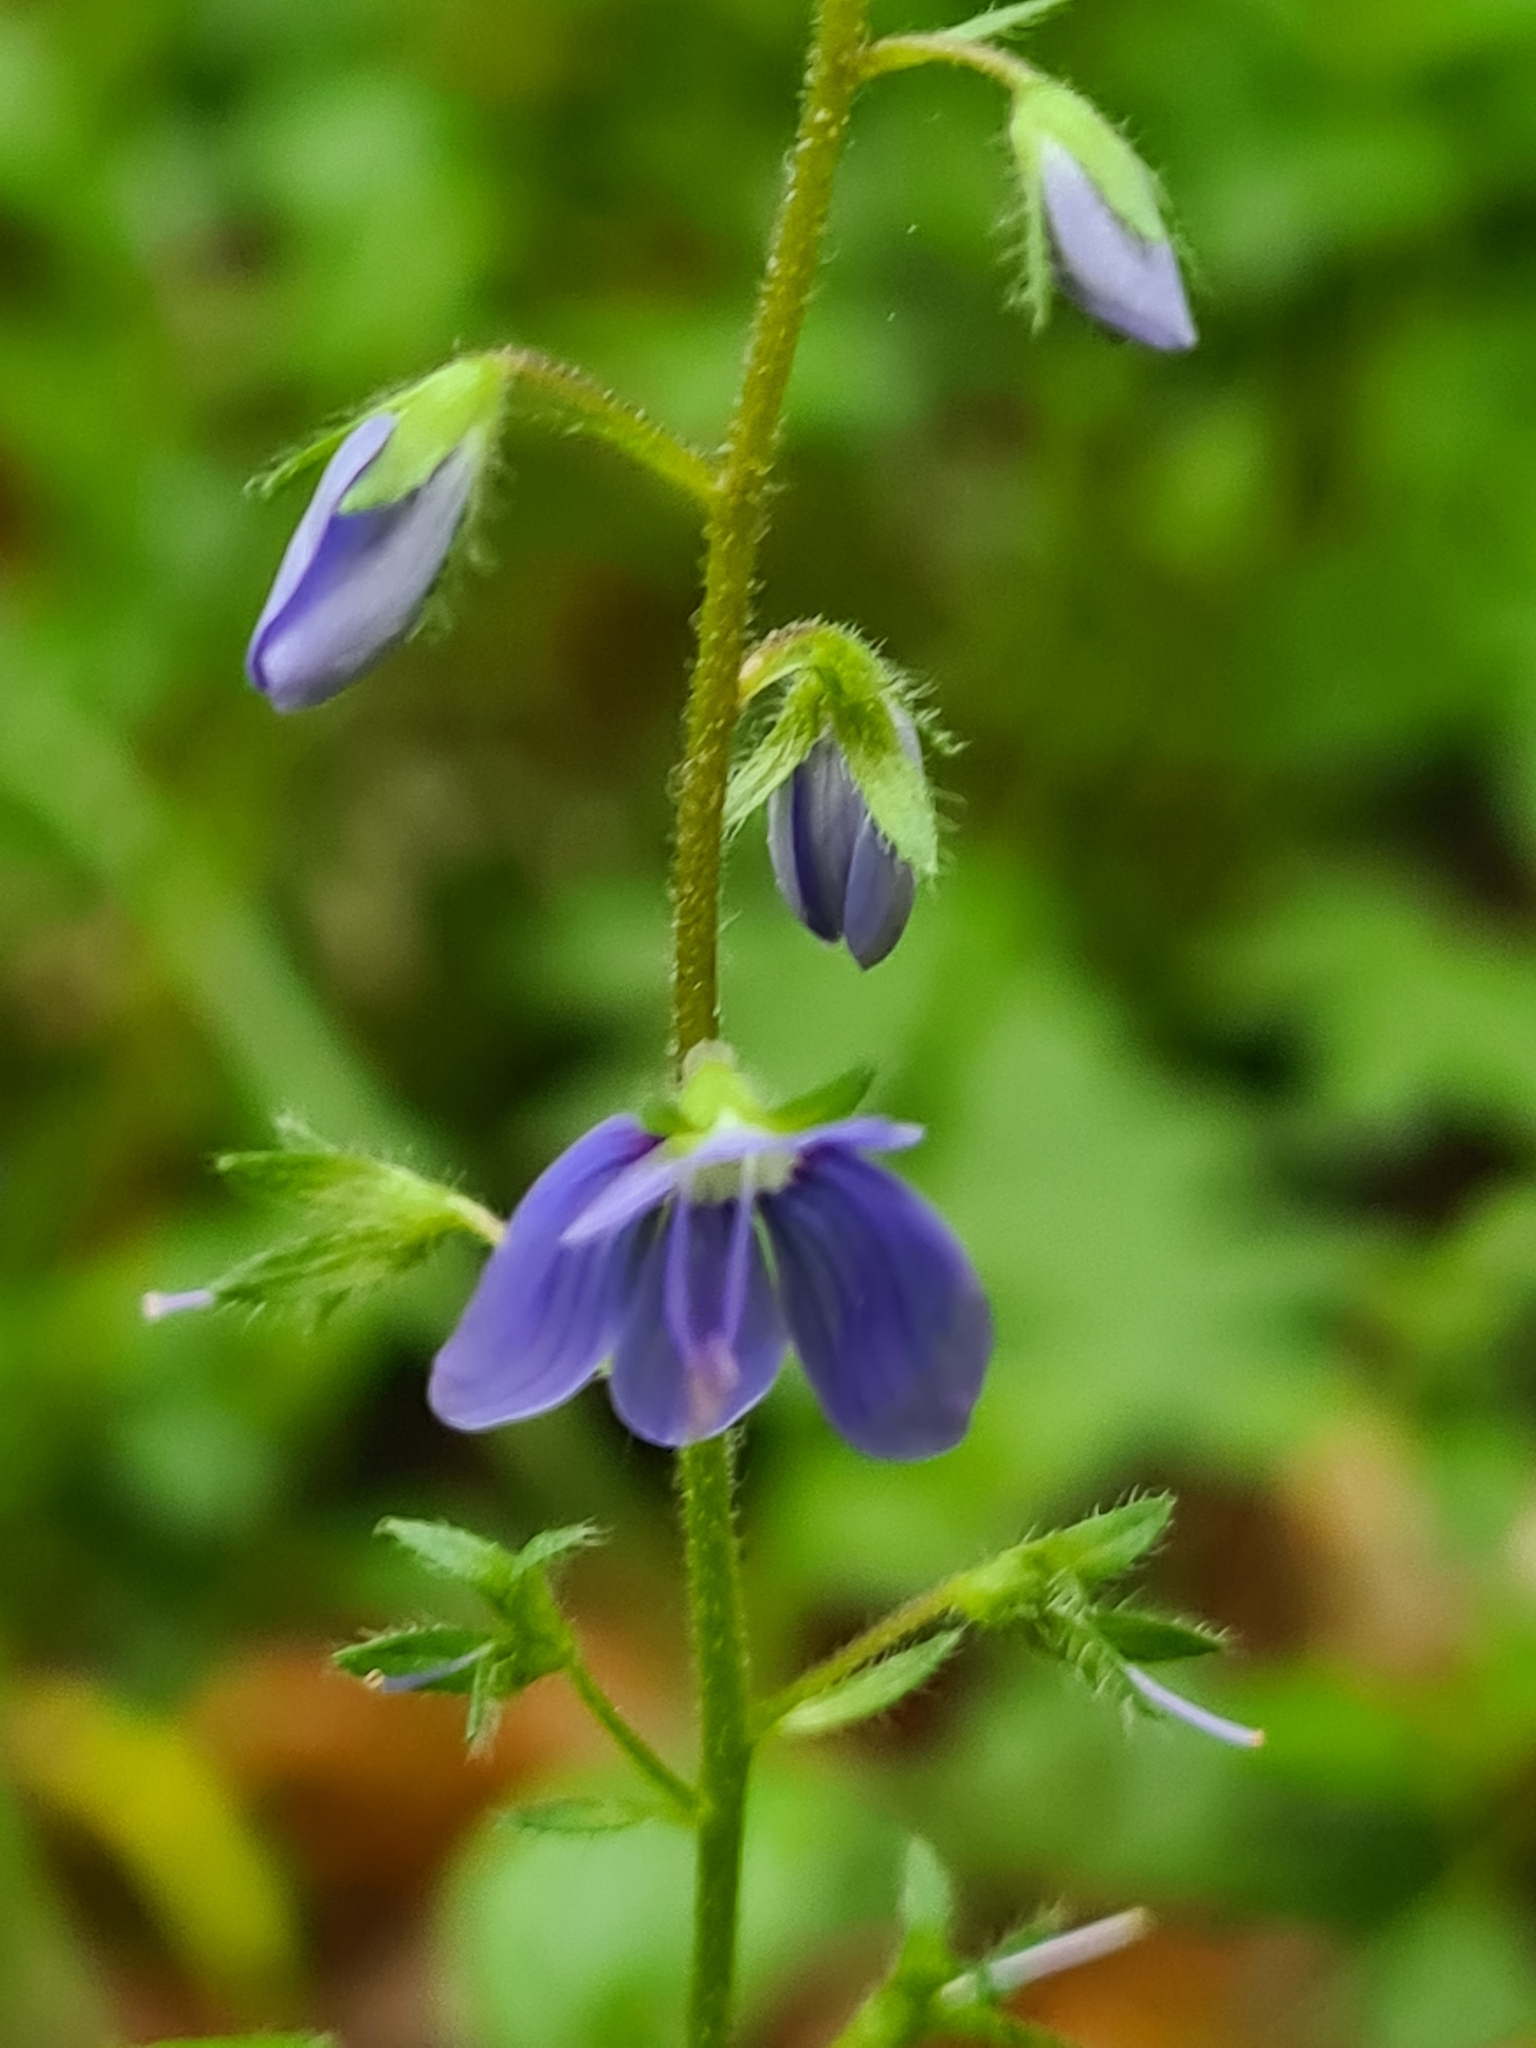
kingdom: Plantae
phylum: Tracheophyta
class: Magnoliopsida
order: Lamiales
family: Plantaginaceae
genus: Veronica
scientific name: Veronica chamaedrys
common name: Germander speedwell
